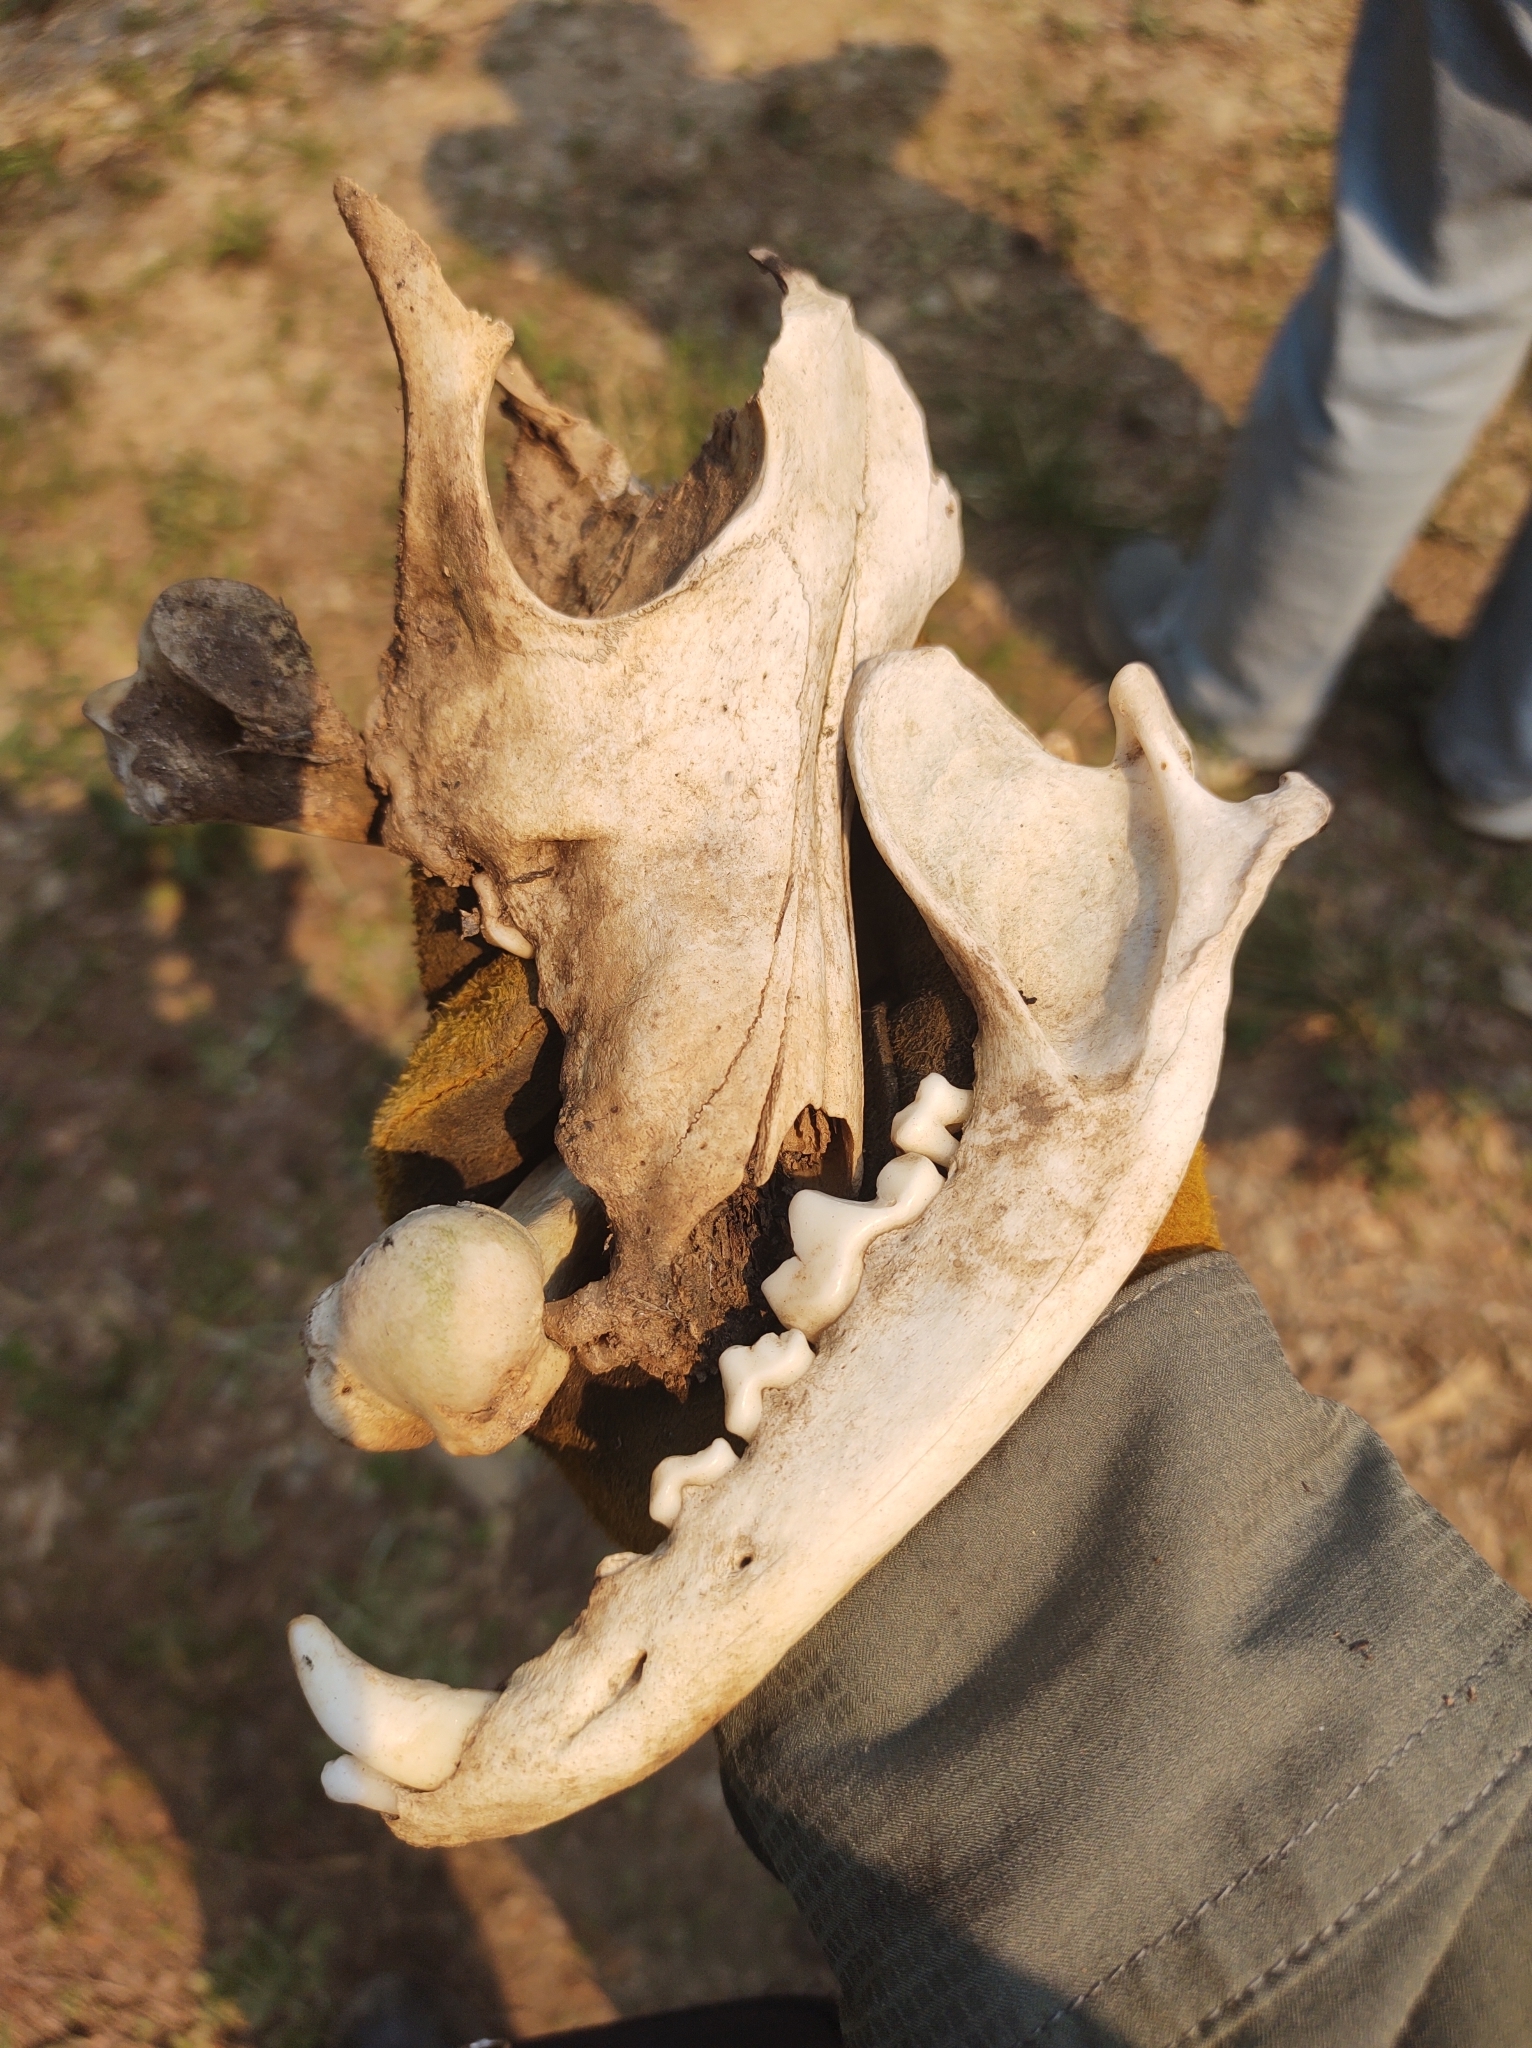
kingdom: Animalia
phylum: Chordata
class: Mammalia
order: Carnivora
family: Canidae
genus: Canis
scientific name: Canis latrans
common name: Coyote
